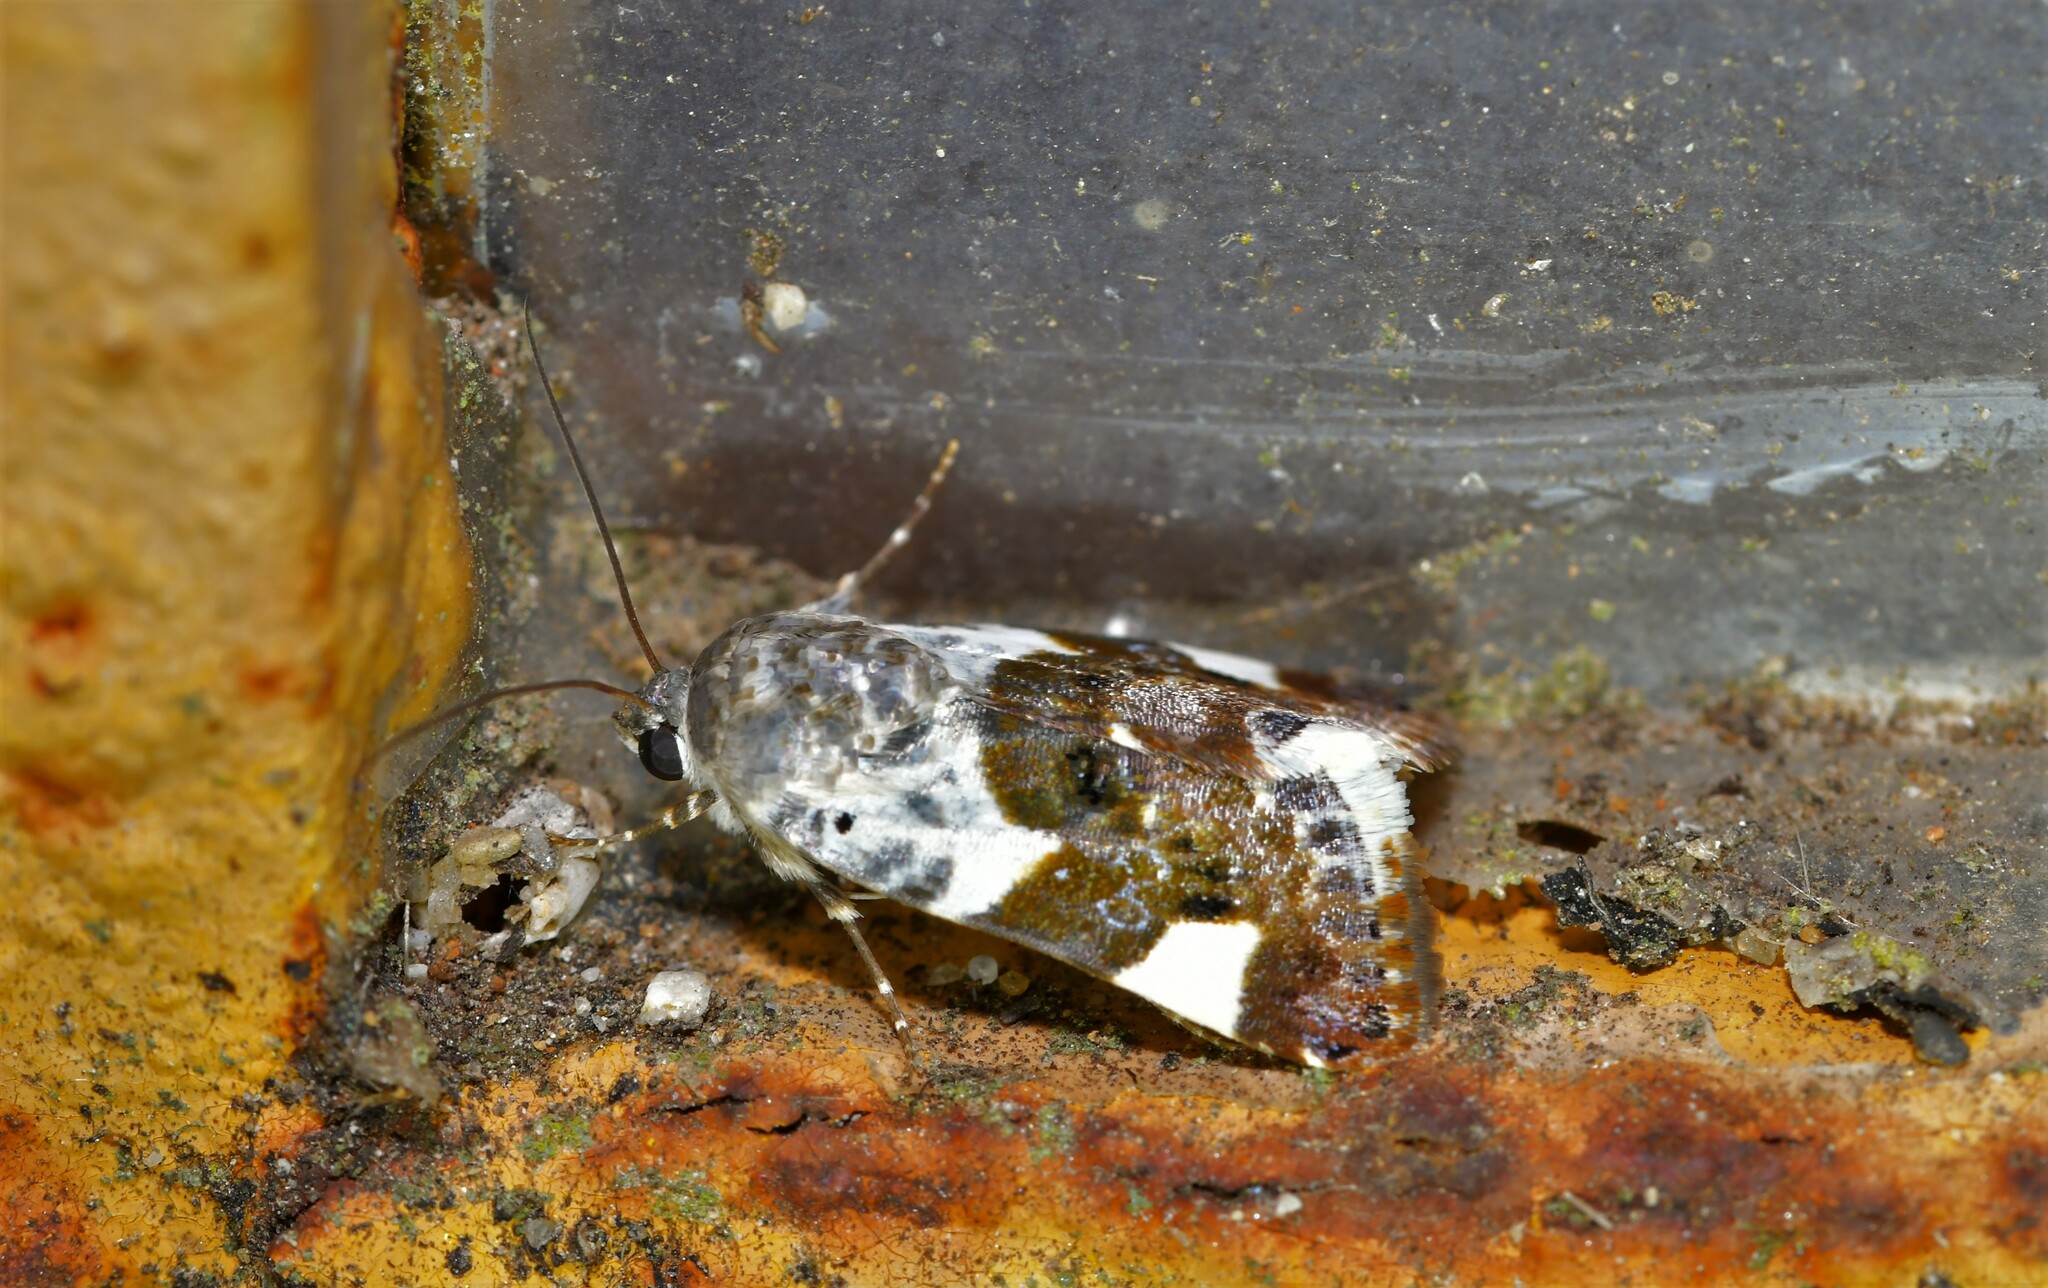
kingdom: Animalia
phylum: Arthropoda
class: Insecta
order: Lepidoptera
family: Noctuidae
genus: Acontia
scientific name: Acontia lucida
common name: Pale shoulder
